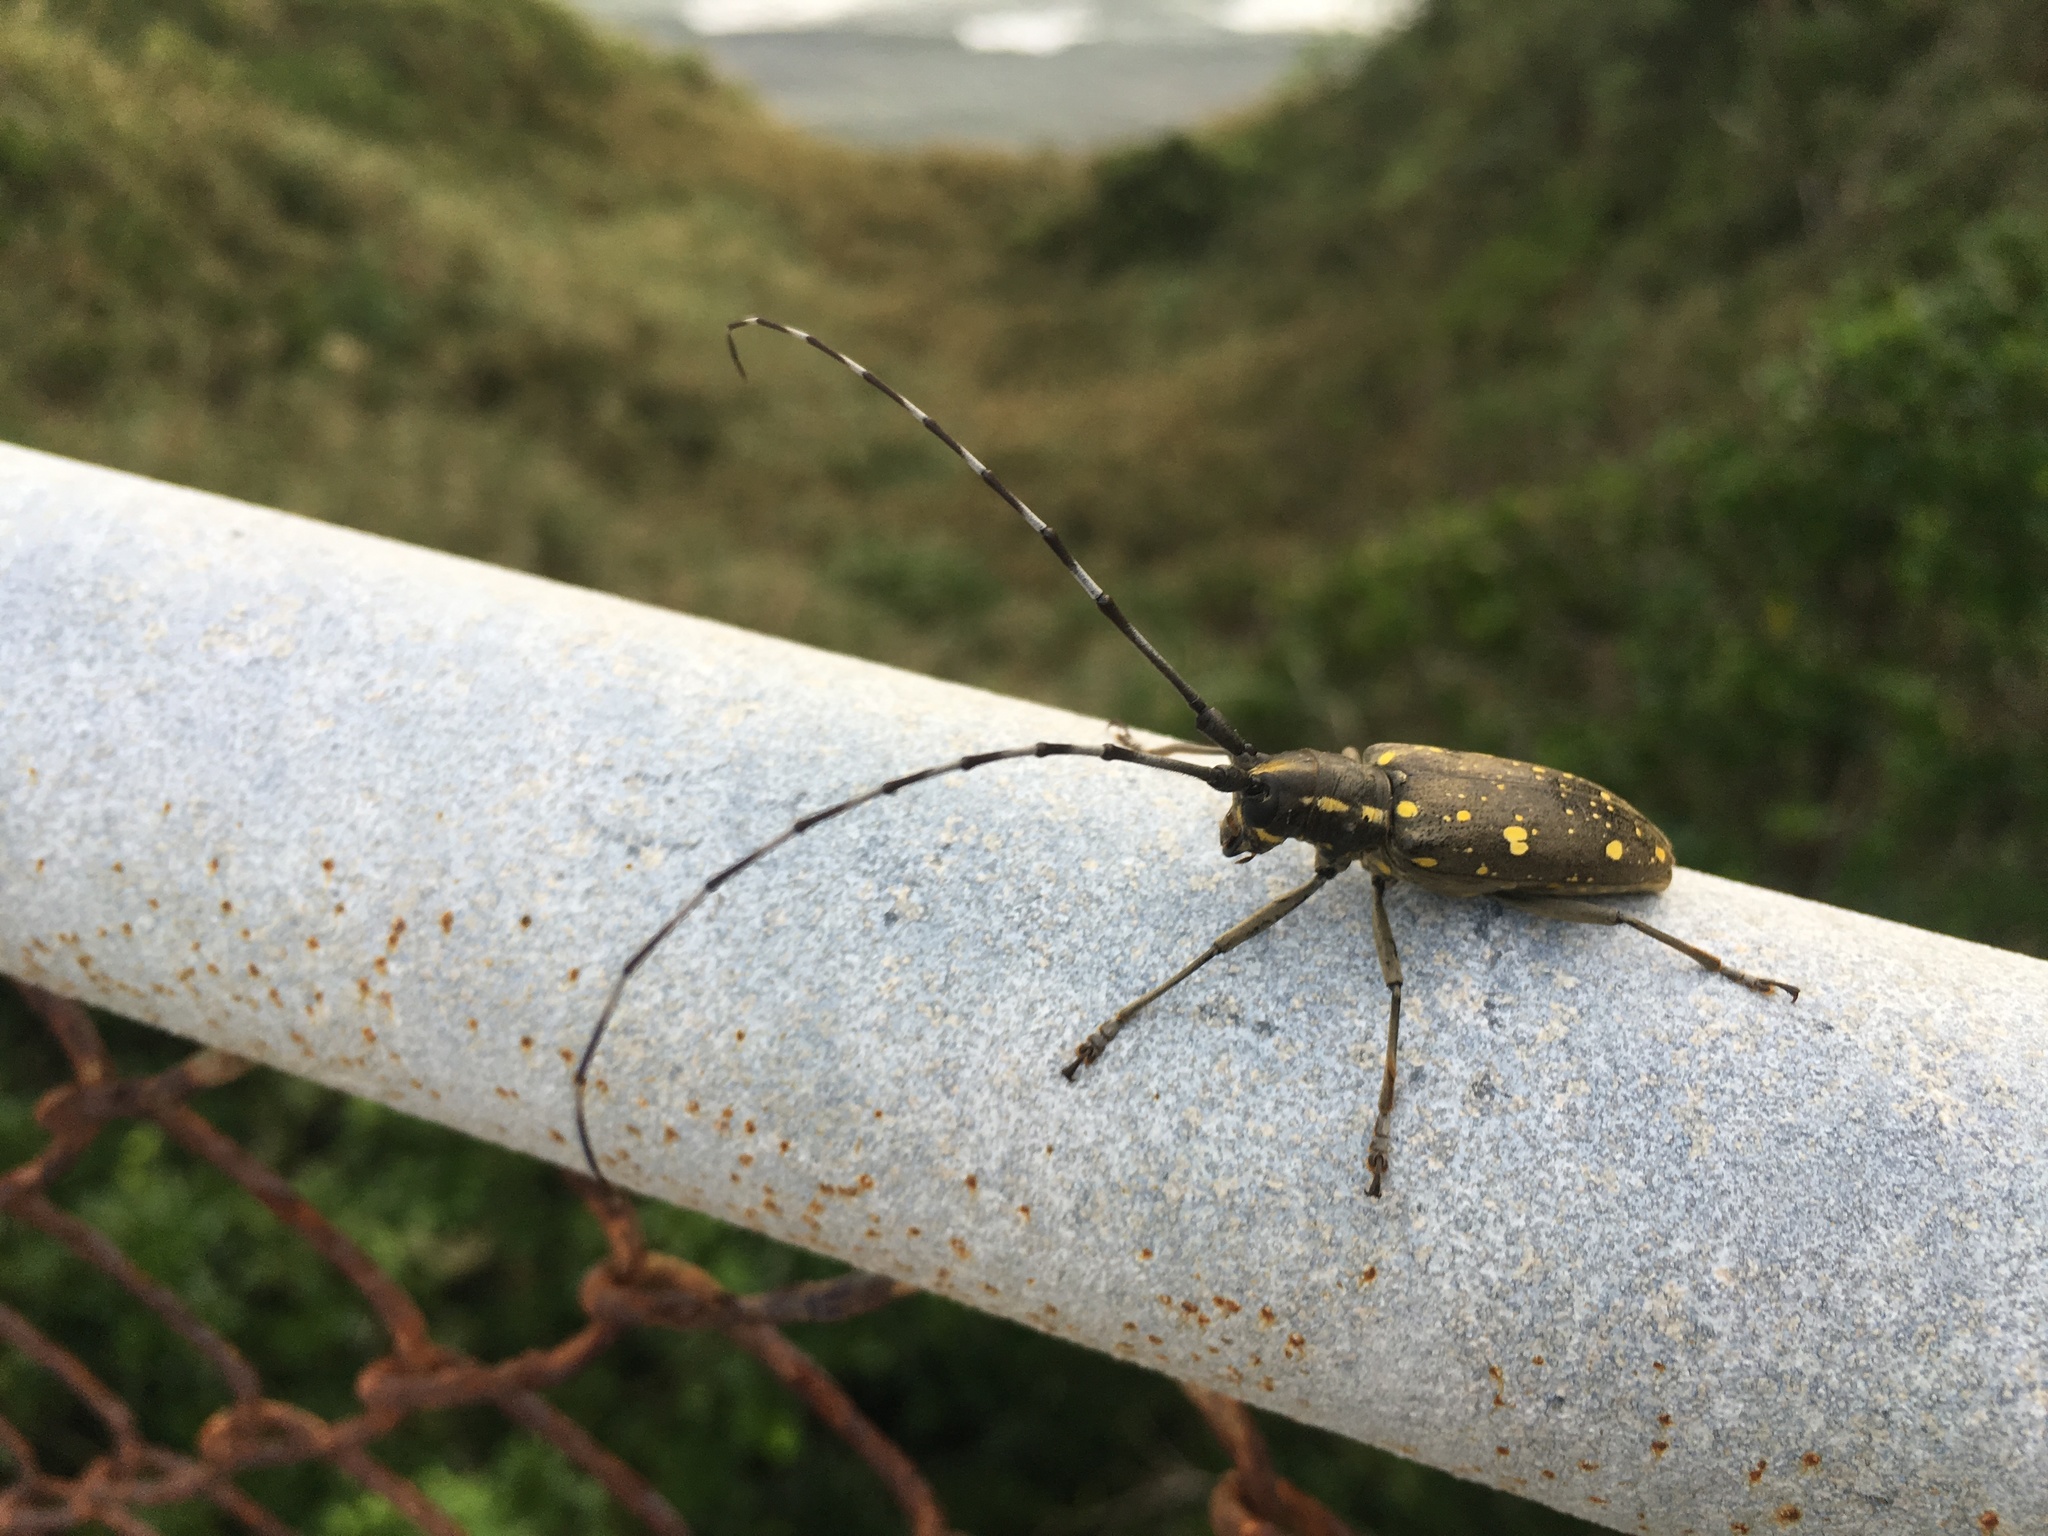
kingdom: Animalia
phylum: Arthropoda
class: Insecta
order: Coleoptera
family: Cerambycidae
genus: Psacothea
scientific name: Psacothea hilaris
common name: Yellow-spotted longicorn beetle
